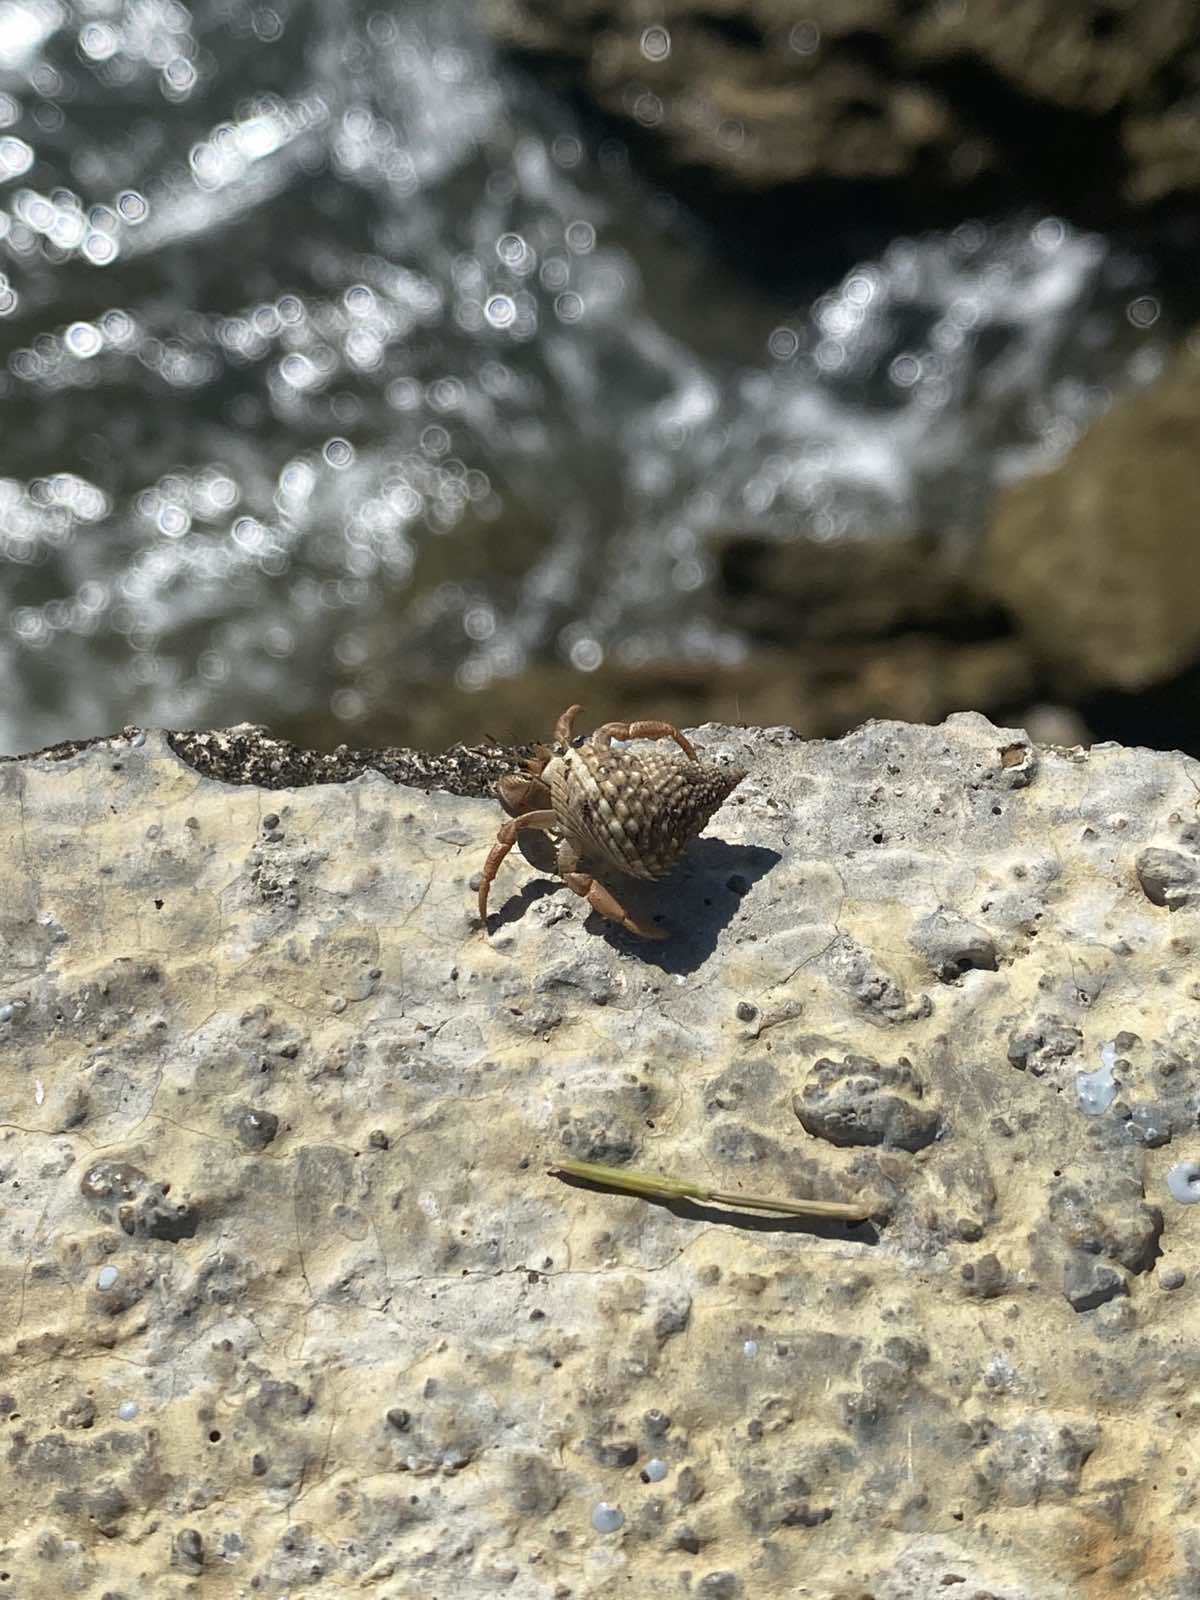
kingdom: Animalia
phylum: Arthropoda
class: Malacostraca
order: Decapoda
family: Coenobitidae
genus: Coenobita
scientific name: Coenobita clypeatus
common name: Caribbean hermit crab
